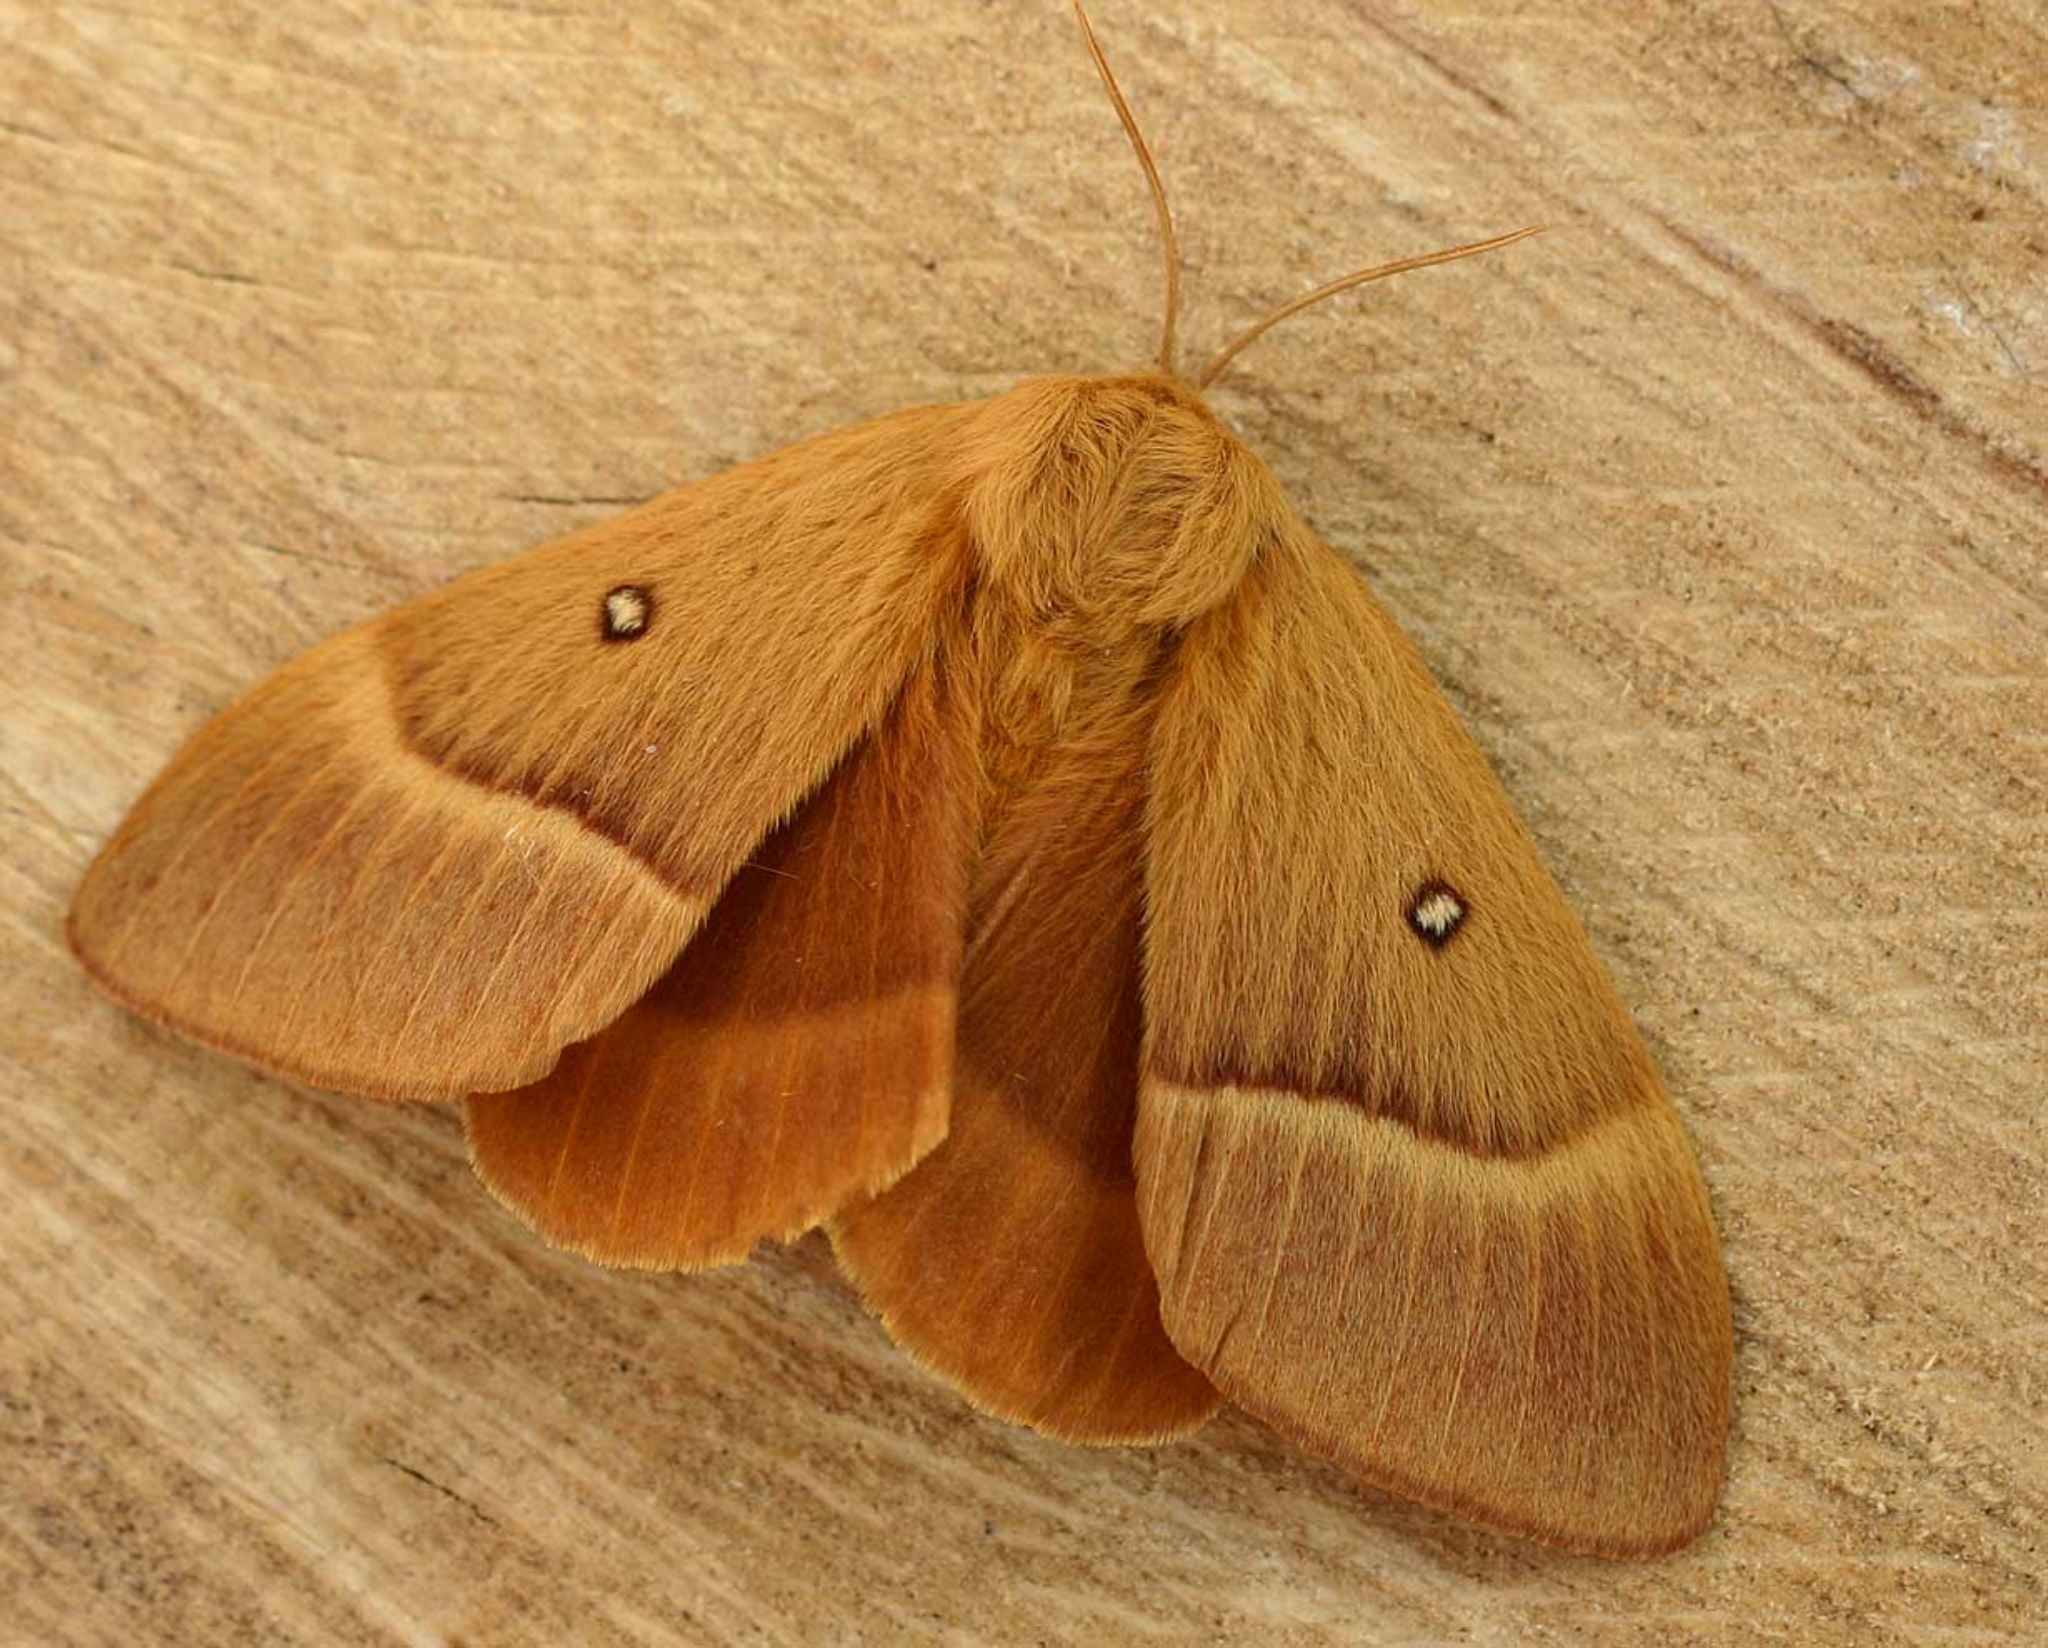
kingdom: Animalia
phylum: Arthropoda
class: Insecta
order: Lepidoptera
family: Lasiocampidae
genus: Lasiocampa
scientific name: Lasiocampa quercus
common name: Oak eggar
